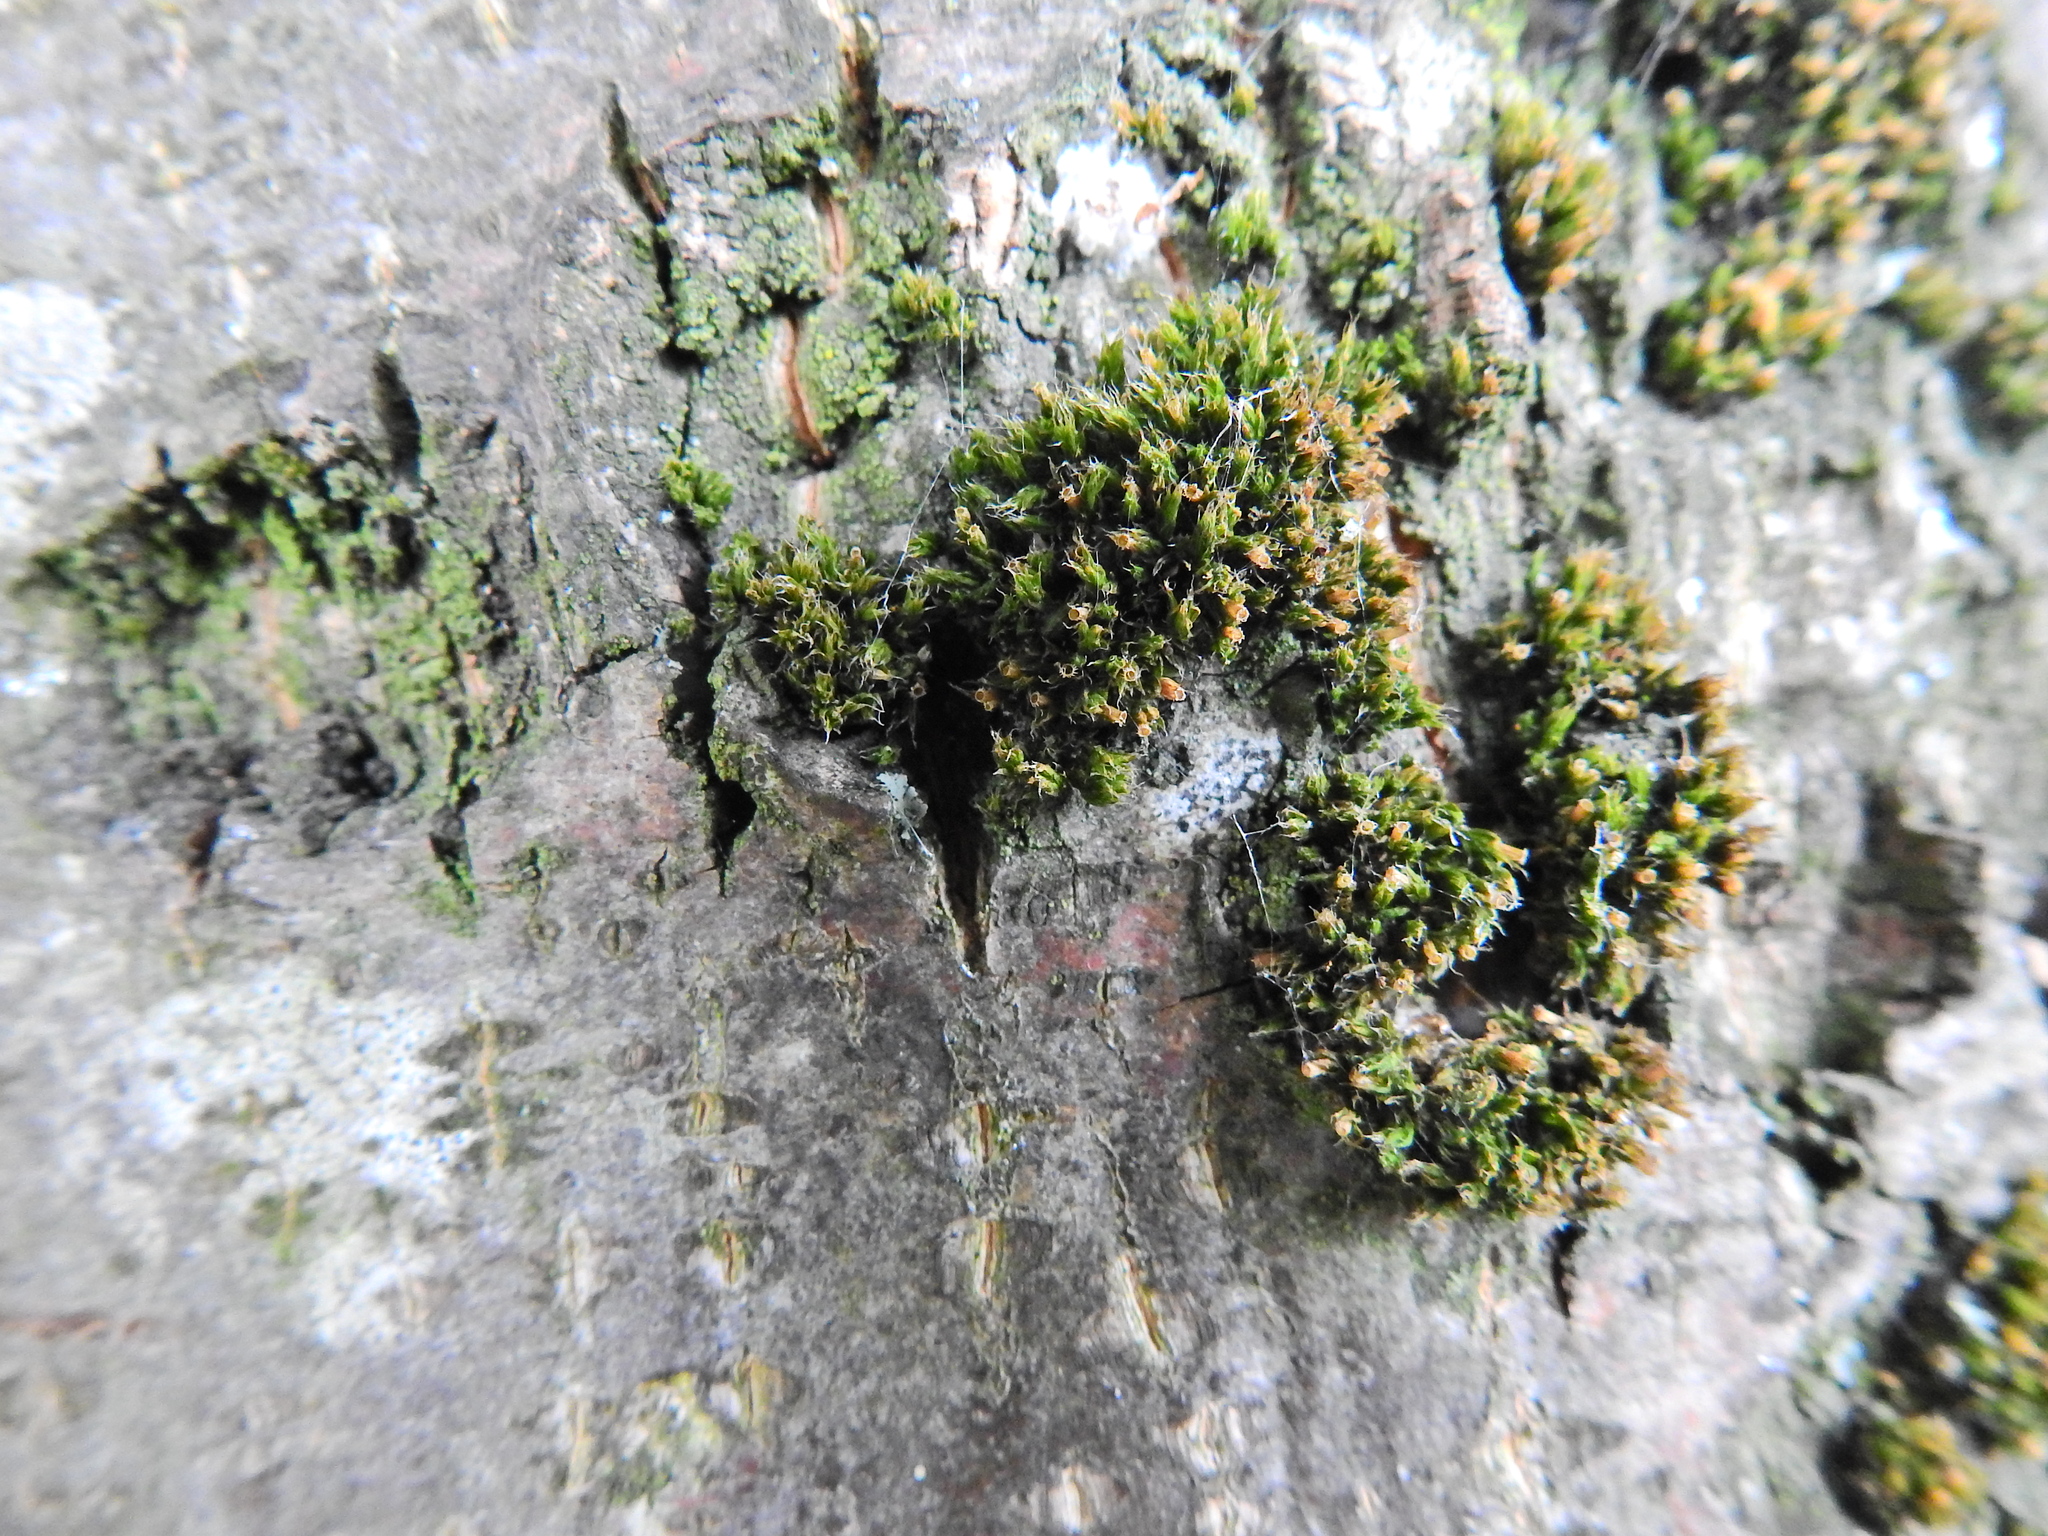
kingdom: Plantae
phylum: Bryophyta
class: Bryopsida
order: Orthotrichales
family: Orthotrichaceae
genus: Orthotrichum
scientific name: Orthotrichum diaphanum
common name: White-tipped bristle-moss
